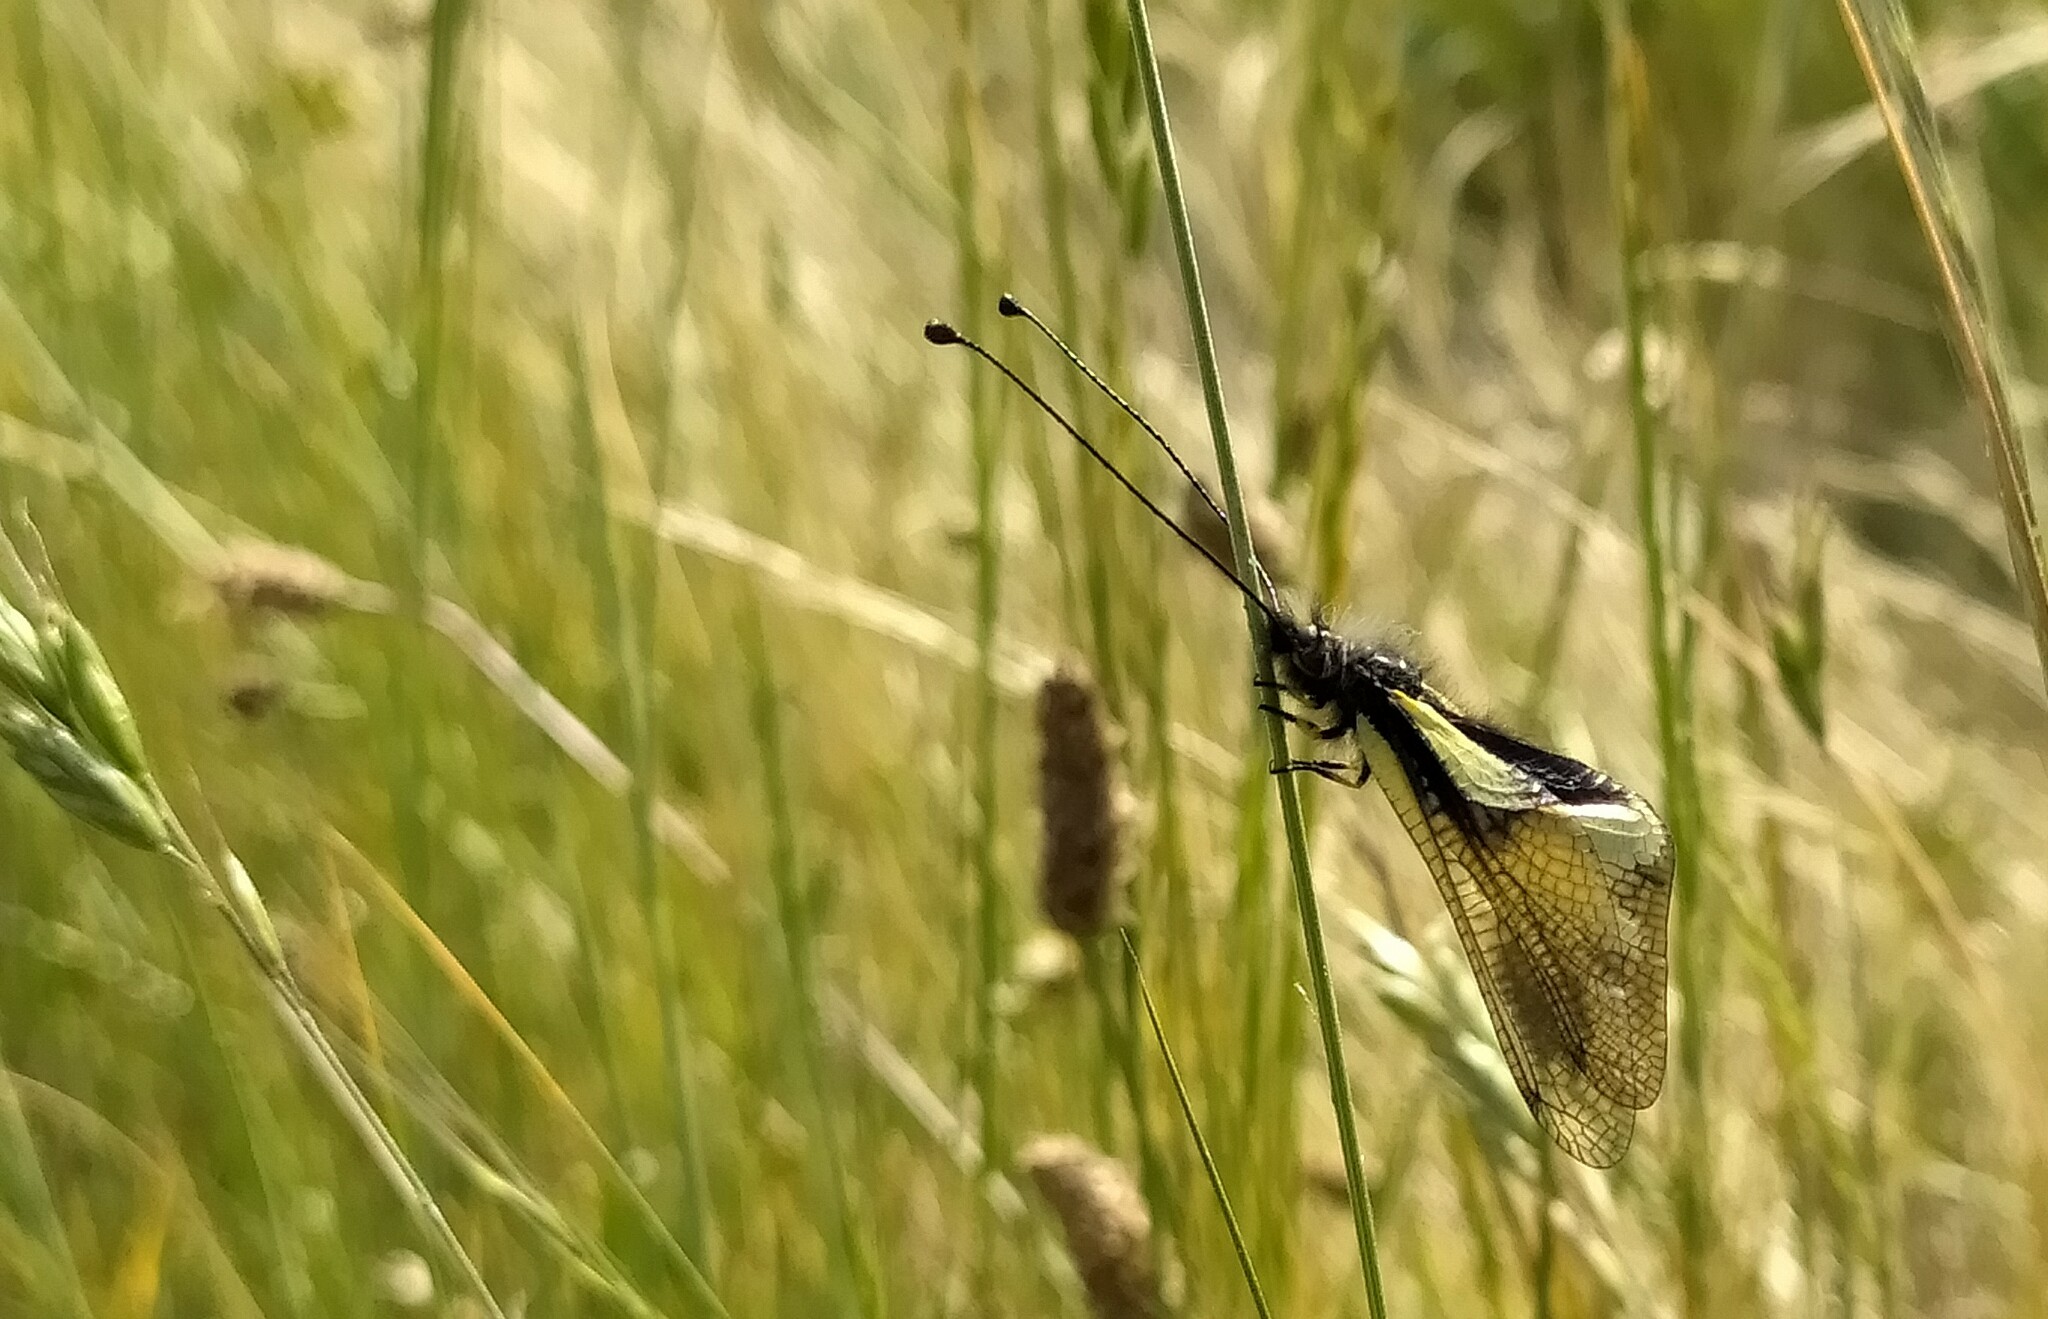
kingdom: Animalia
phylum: Arthropoda
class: Insecta
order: Neuroptera
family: Ascalaphidae
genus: Libelloides
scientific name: Libelloides coccajus
